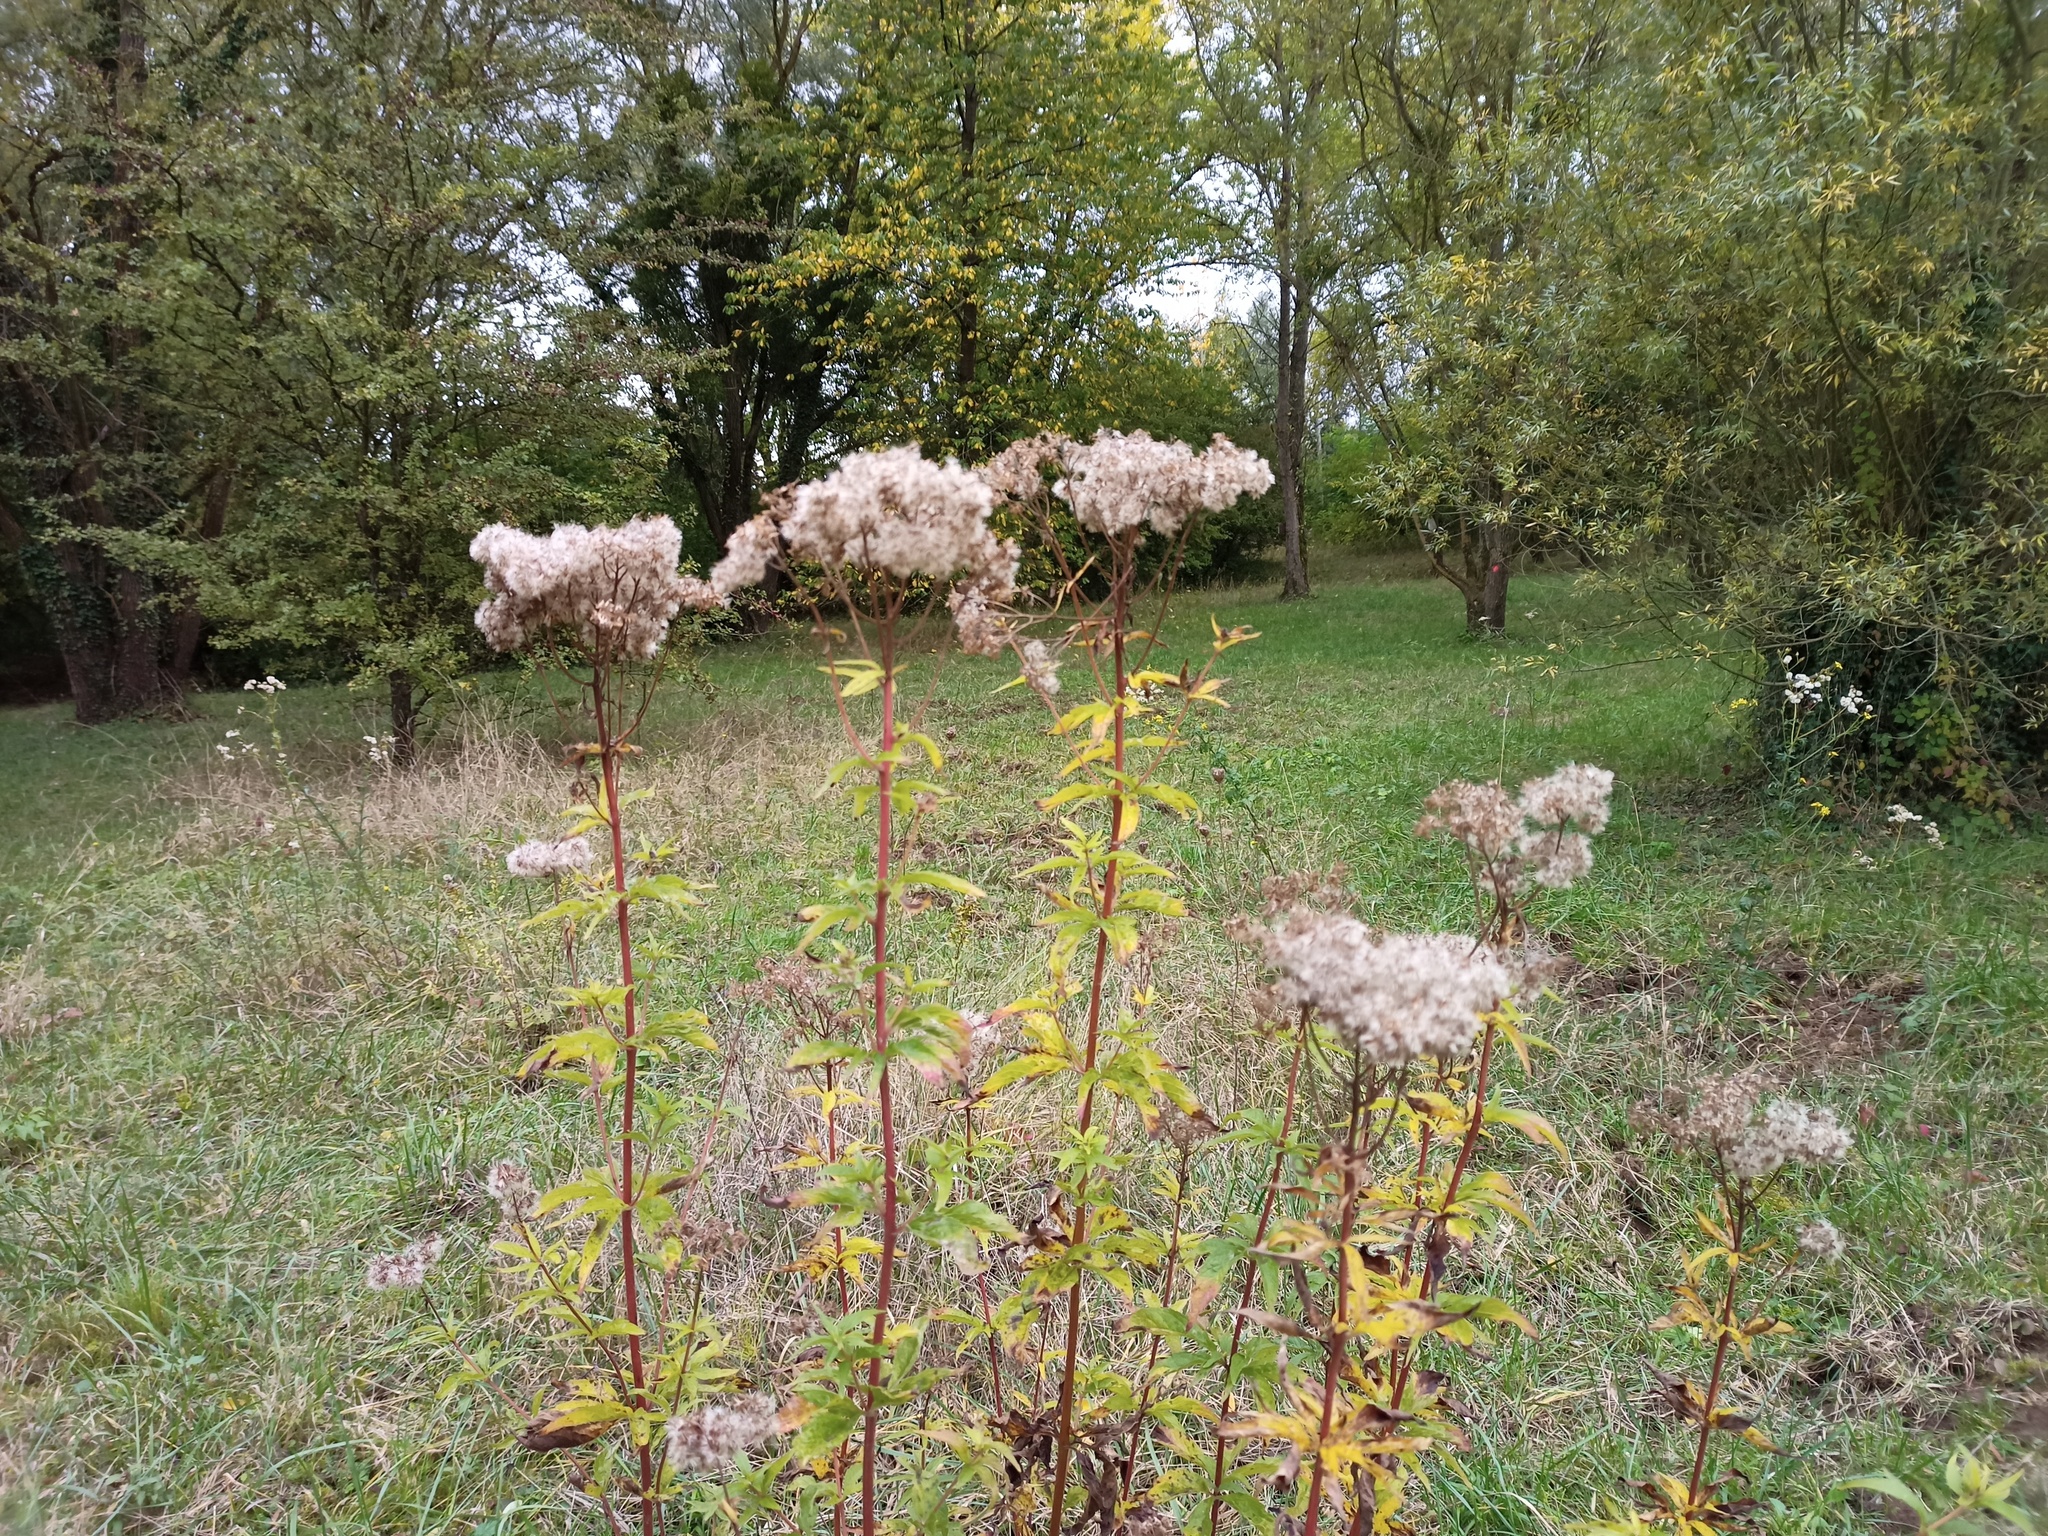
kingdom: Plantae
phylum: Tracheophyta
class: Magnoliopsida
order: Asterales
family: Asteraceae
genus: Eupatorium
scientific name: Eupatorium cannabinum
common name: Hemp-agrimony
